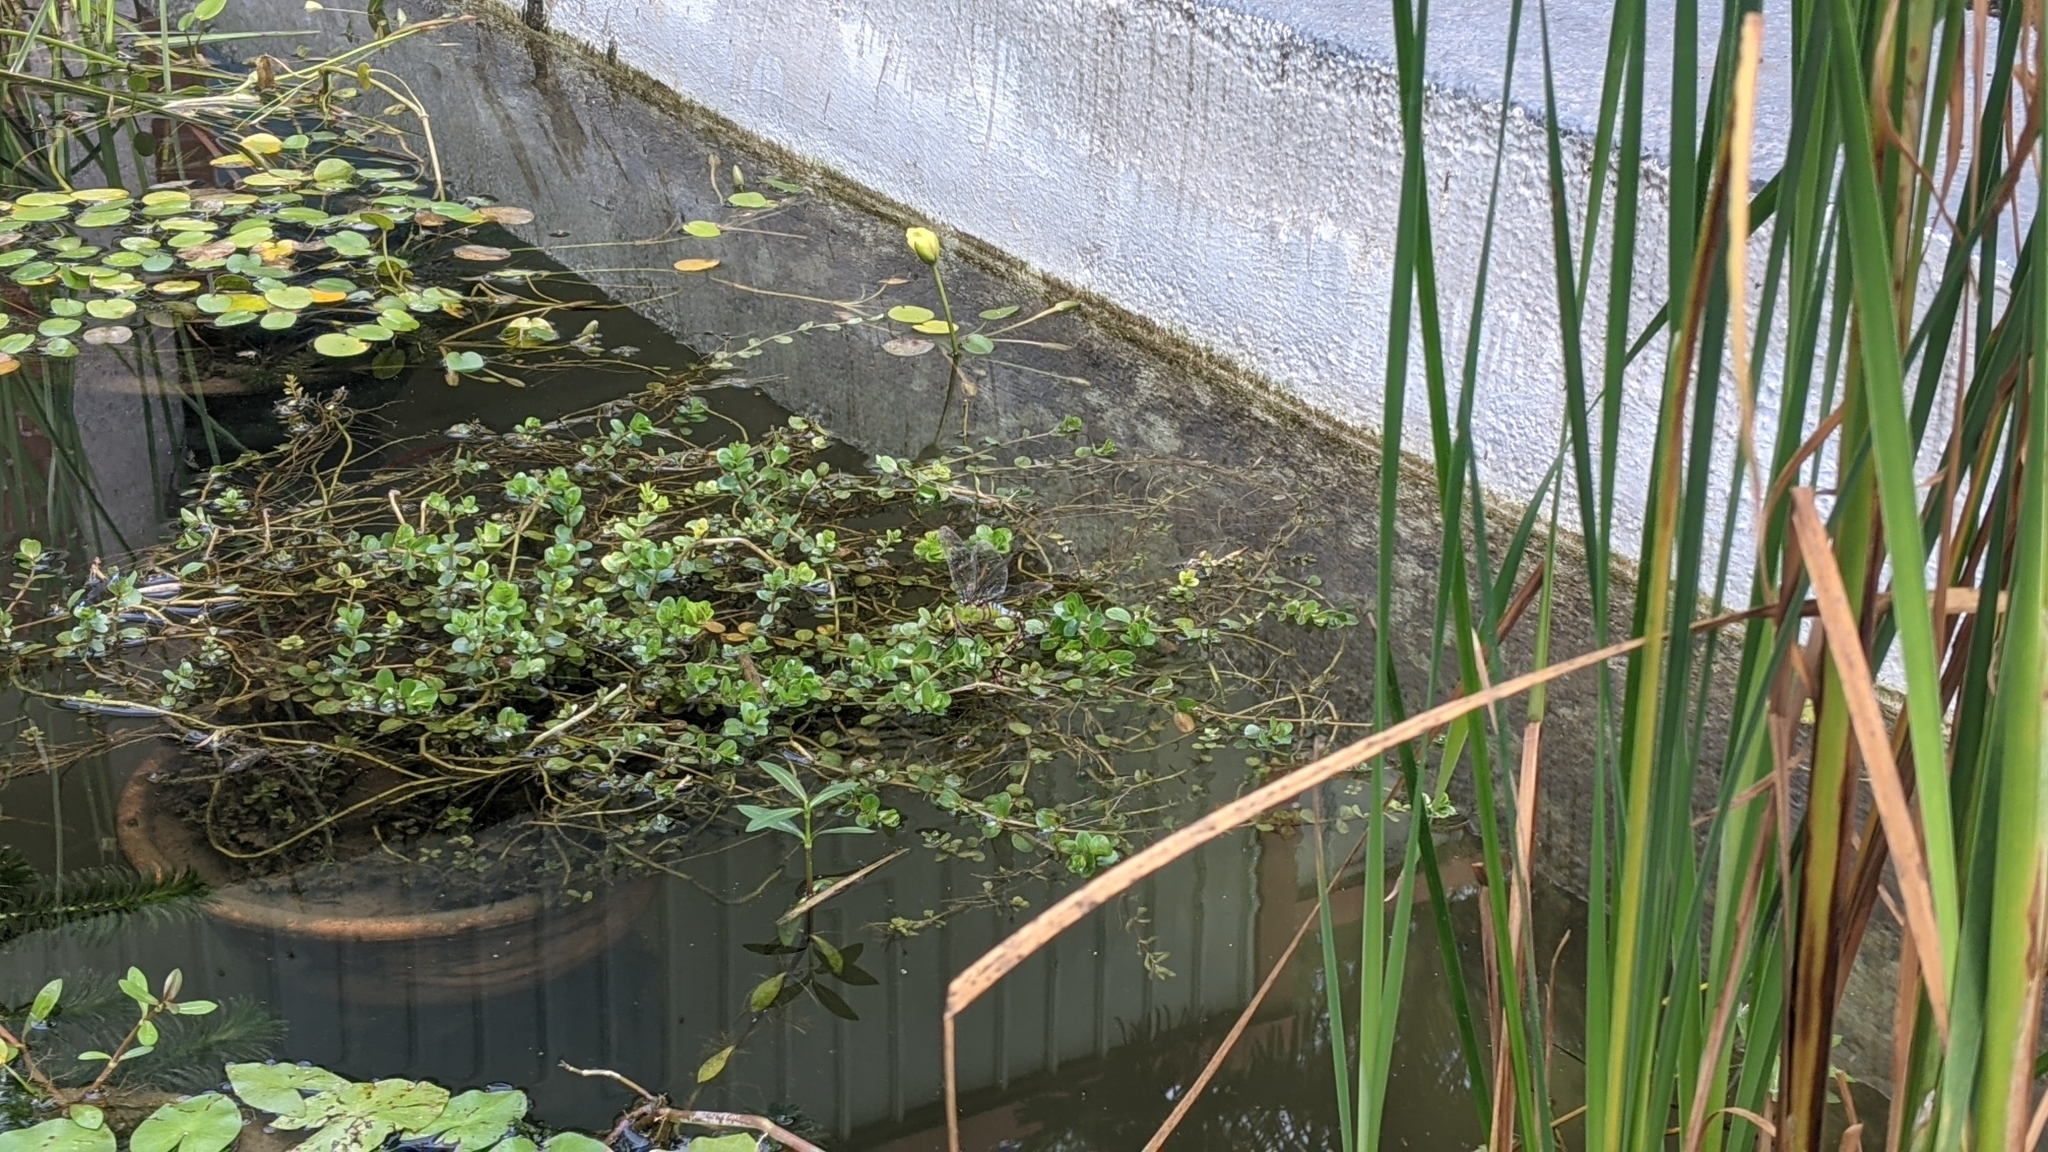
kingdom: Animalia
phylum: Arthropoda
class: Insecta
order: Odonata
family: Aeshnidae
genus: Anax
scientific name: Anax panybeus
